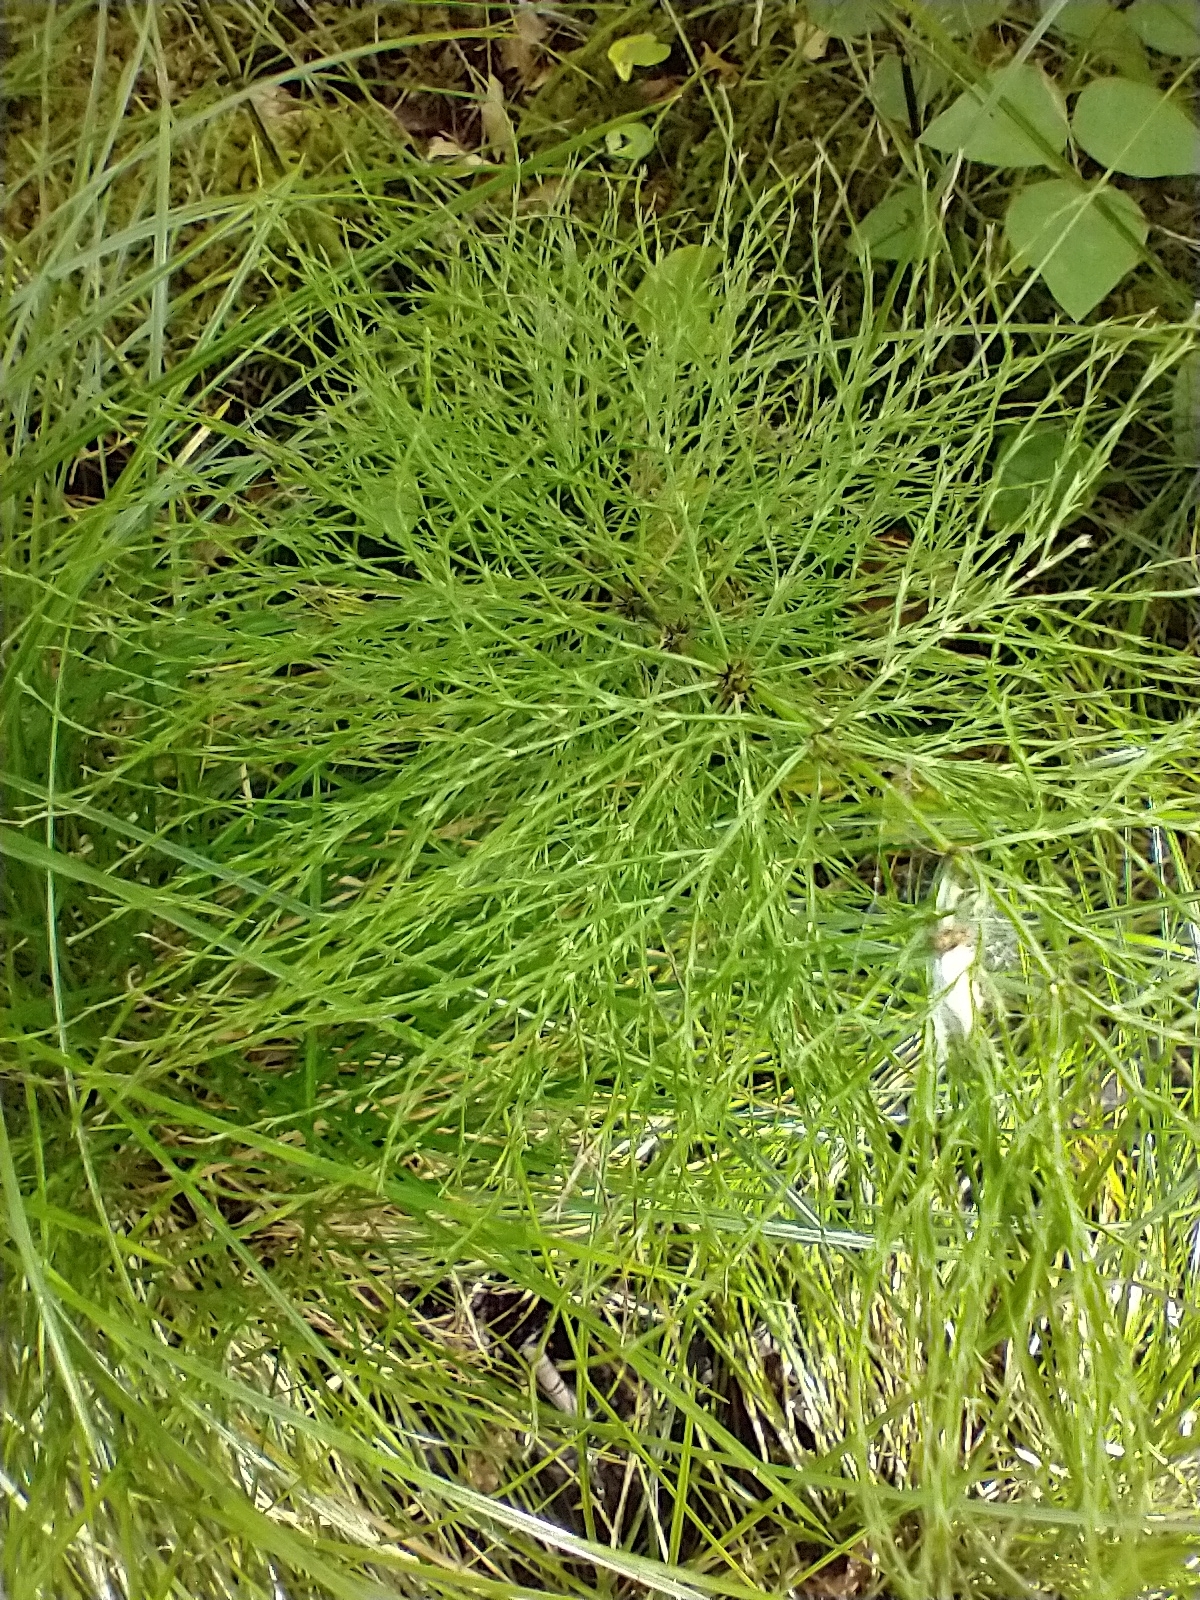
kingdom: Plantae
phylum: Tracheophyta
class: Polypodiopsida
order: Equisetales
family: Equisetaceae
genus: Equisetum
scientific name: Equisetum sylvaticum
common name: Wood horsetail
